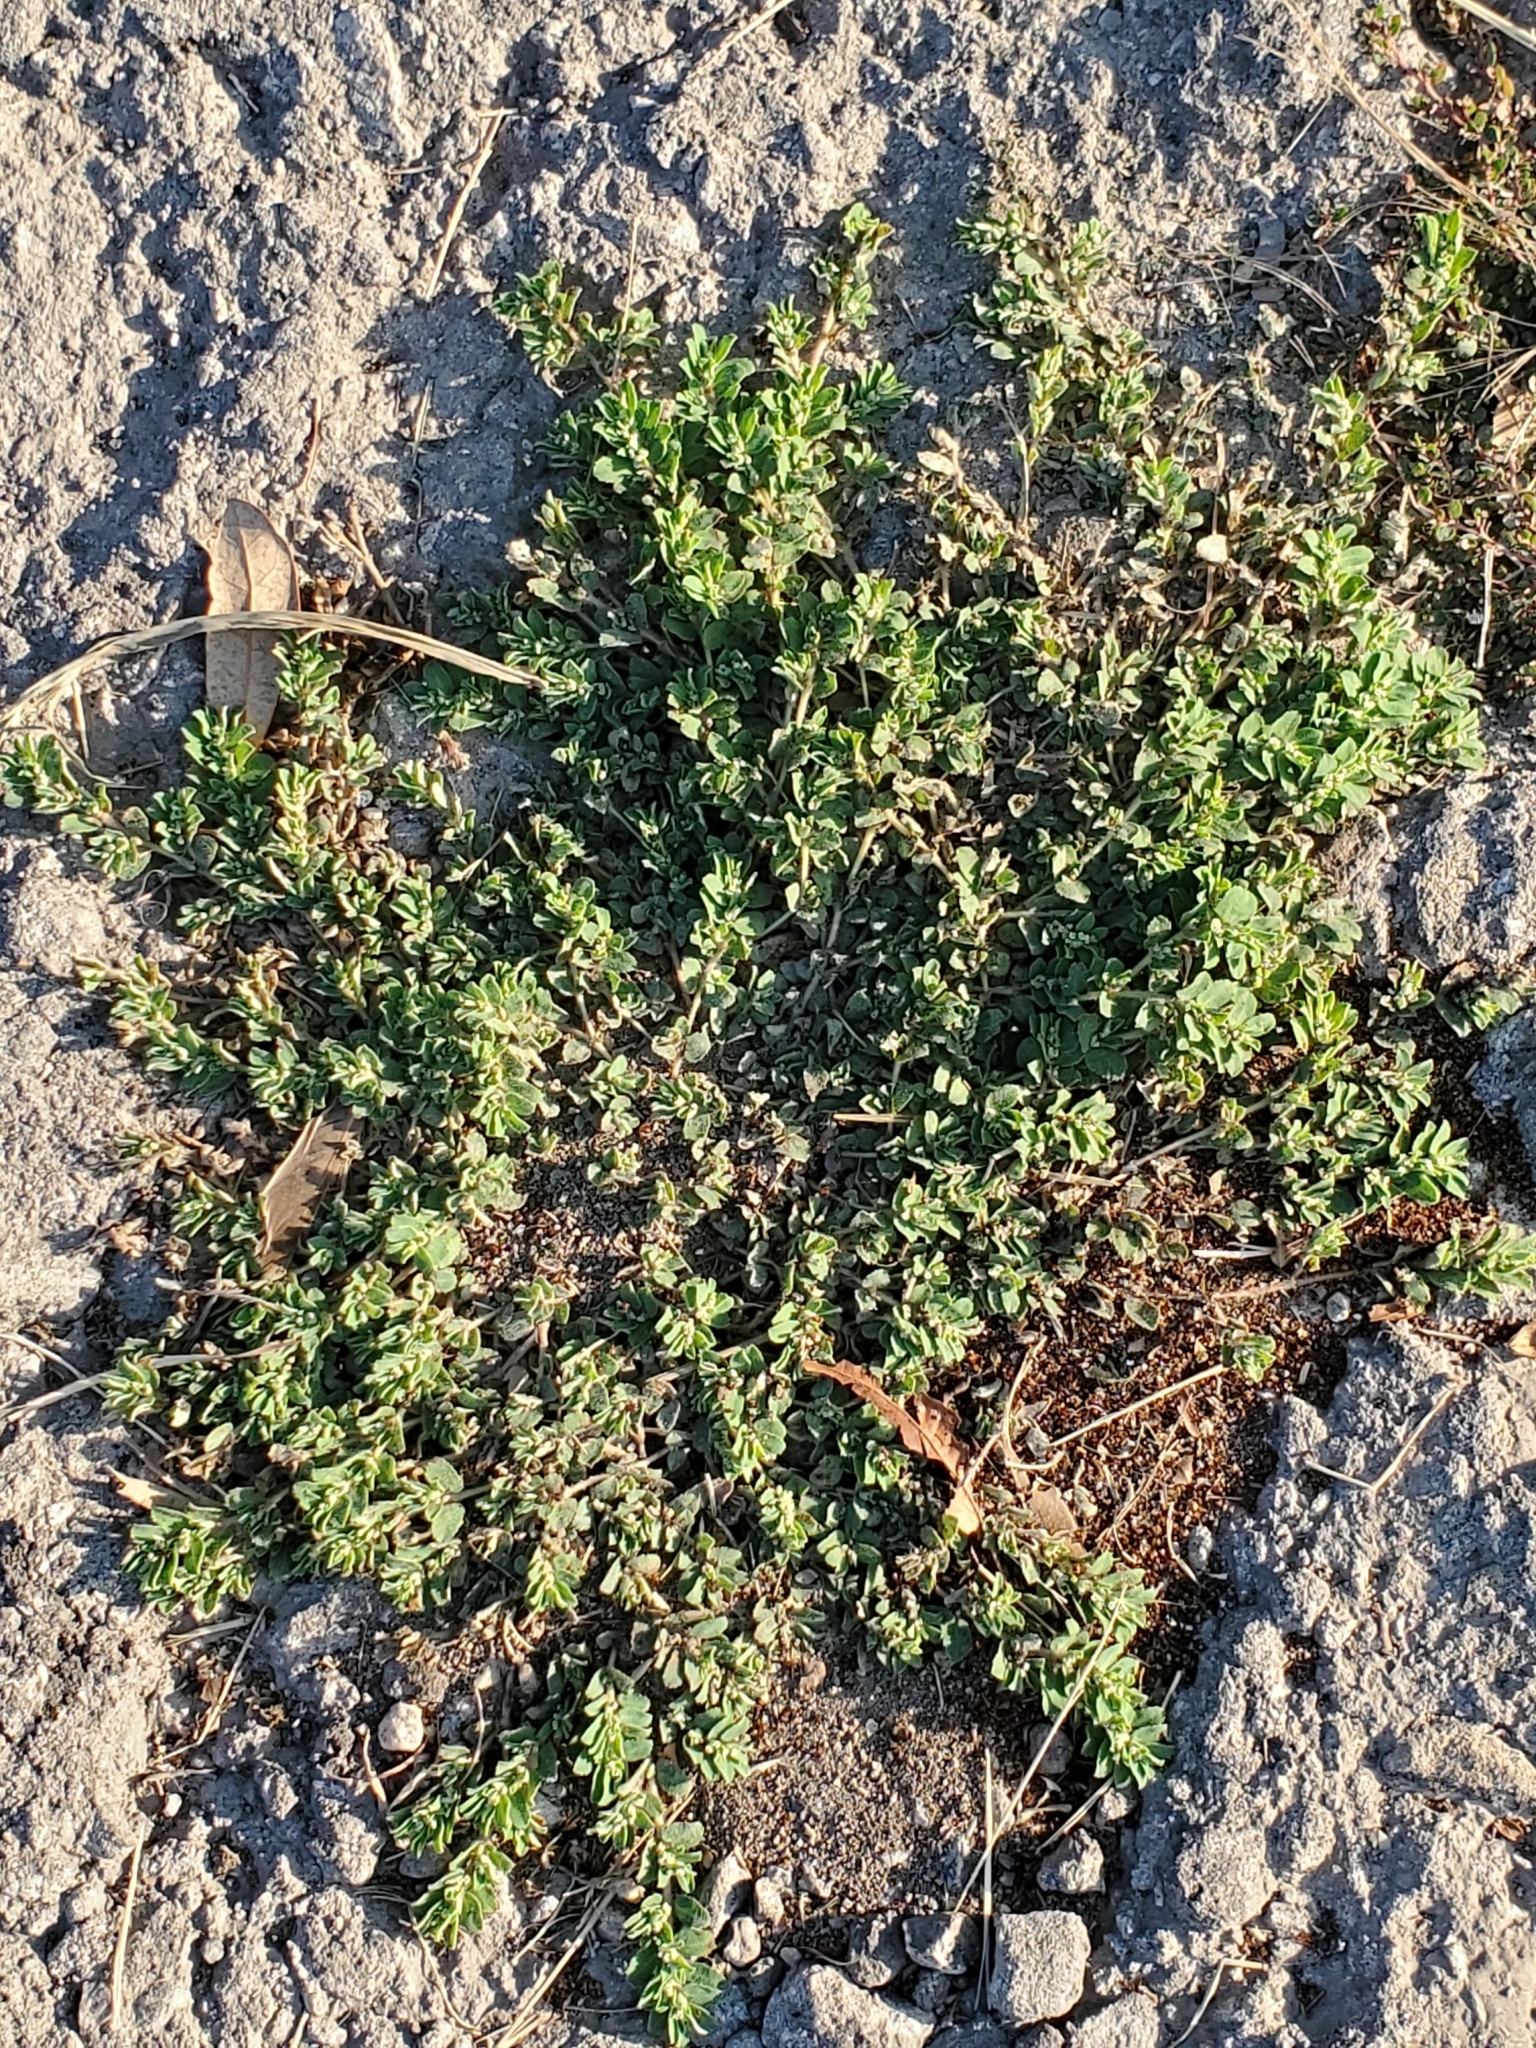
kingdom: Plantae
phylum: Tracheophyta
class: Magnoliopsida
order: Malpighiales
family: Euphorbiaceae
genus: Euphorbia
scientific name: Euphorbia stictospora
